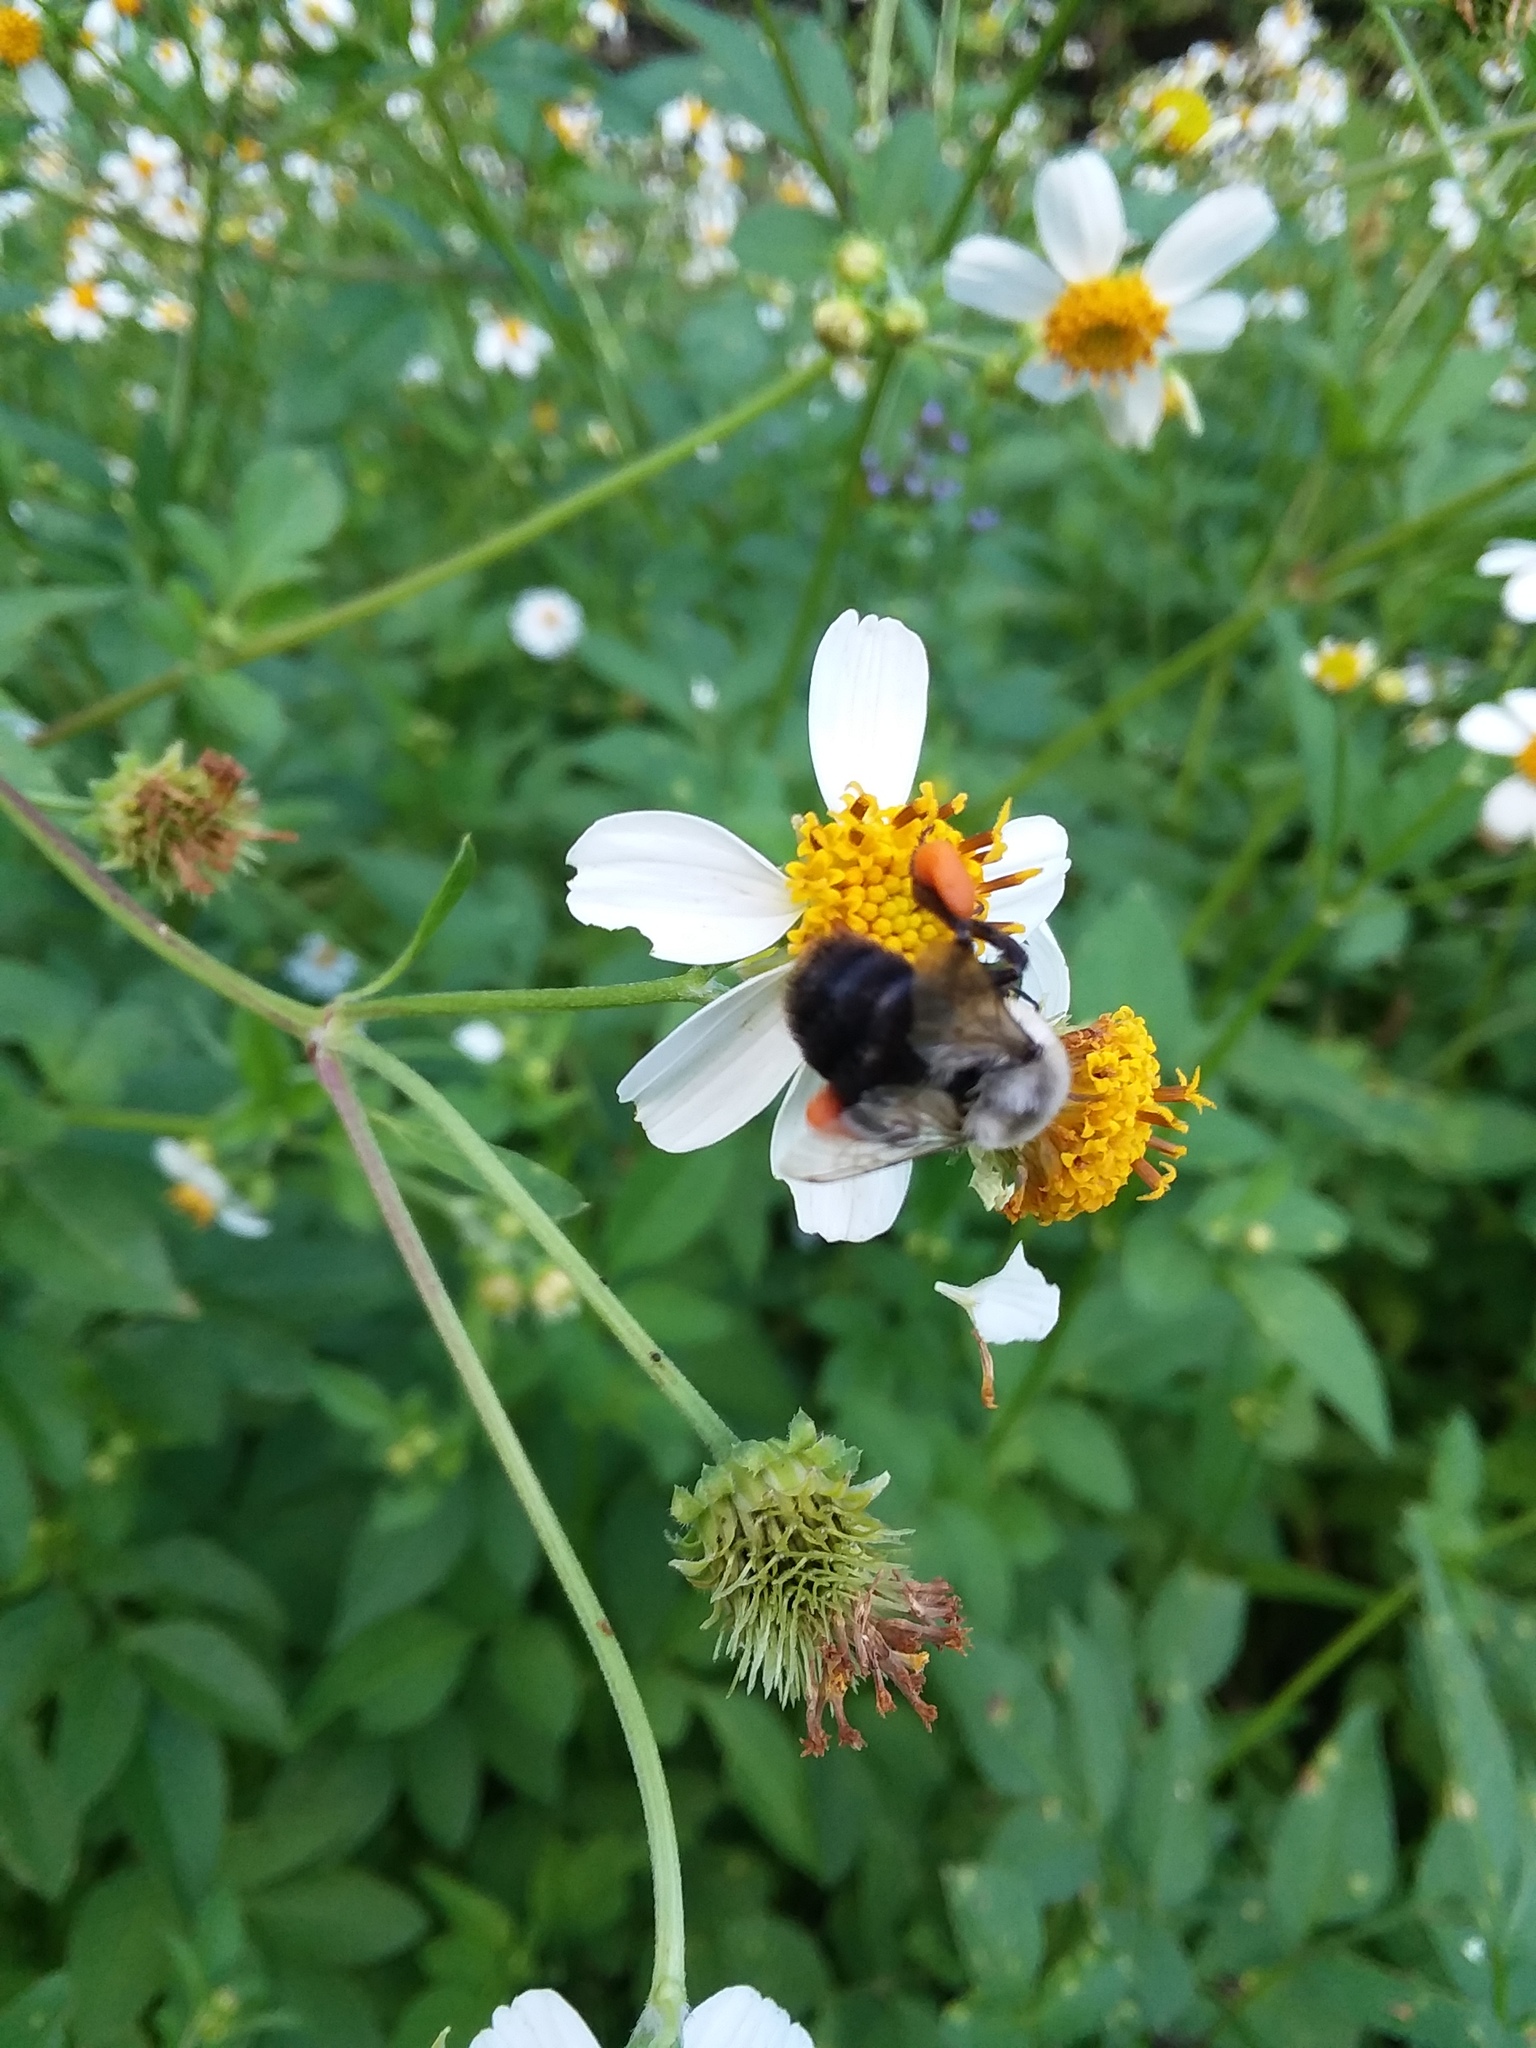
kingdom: Animalia
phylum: Arthropoda
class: Insecta
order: Hymenoptera
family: Apidae
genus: Bombus
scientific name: Bombus impatiens
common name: Common eastern bumble bee
